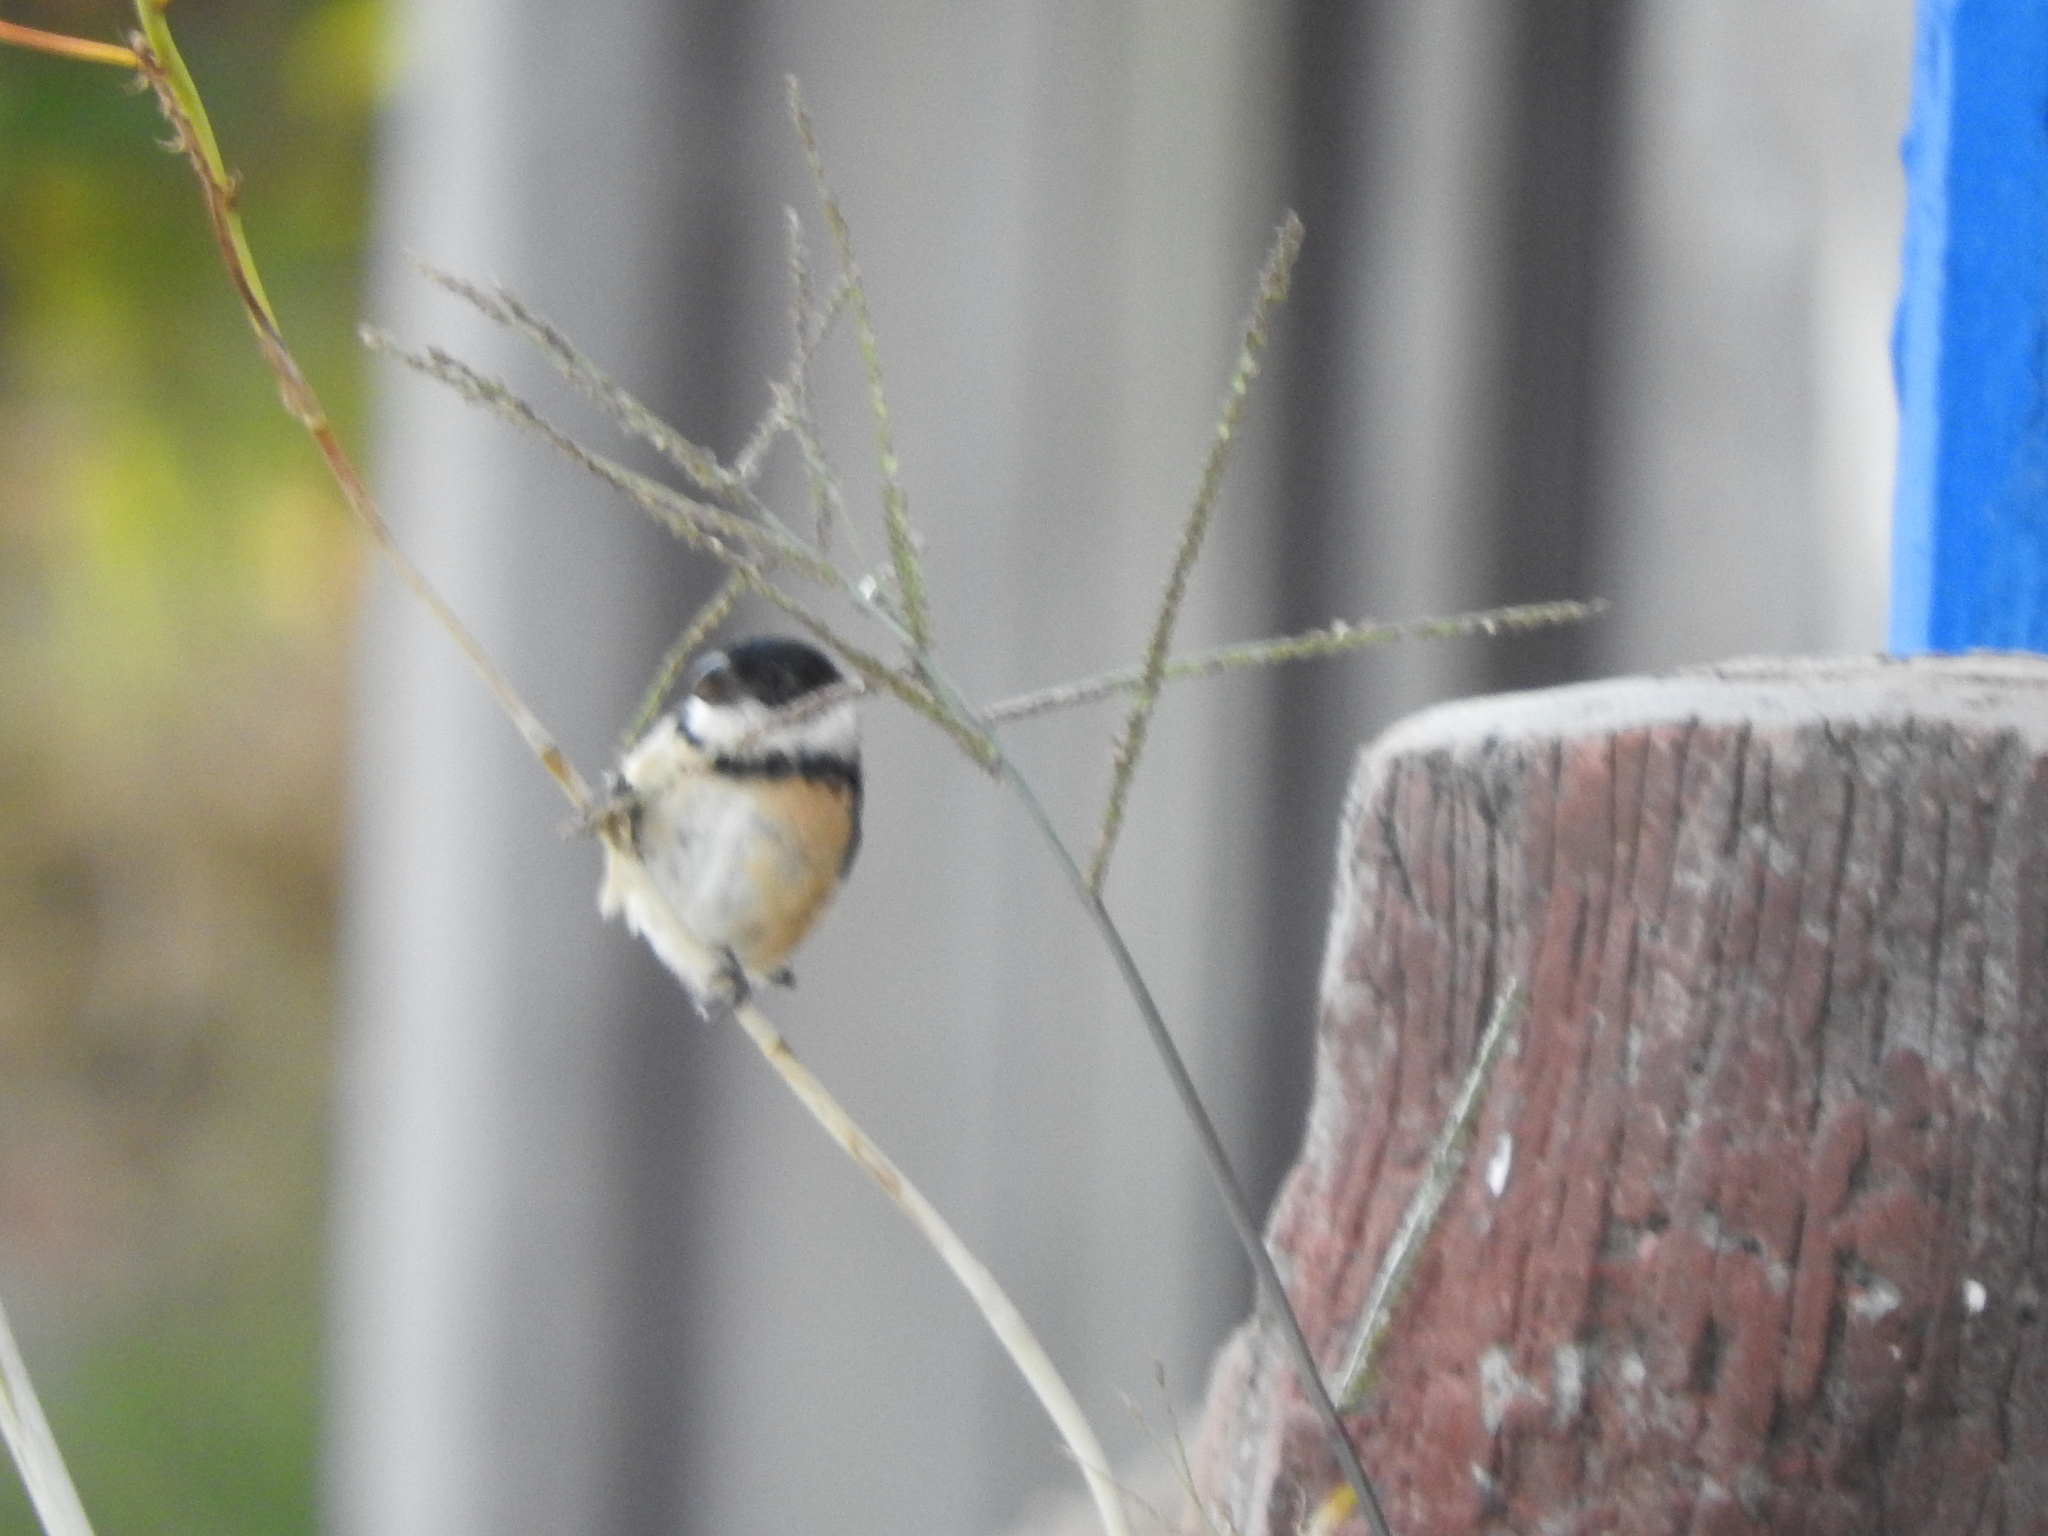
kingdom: Animalia
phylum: Chordata
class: Aves
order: Passeriformes
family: Thraupidae
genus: Sporophila
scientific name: Sporophila torqueola
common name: White-collared seedeater
